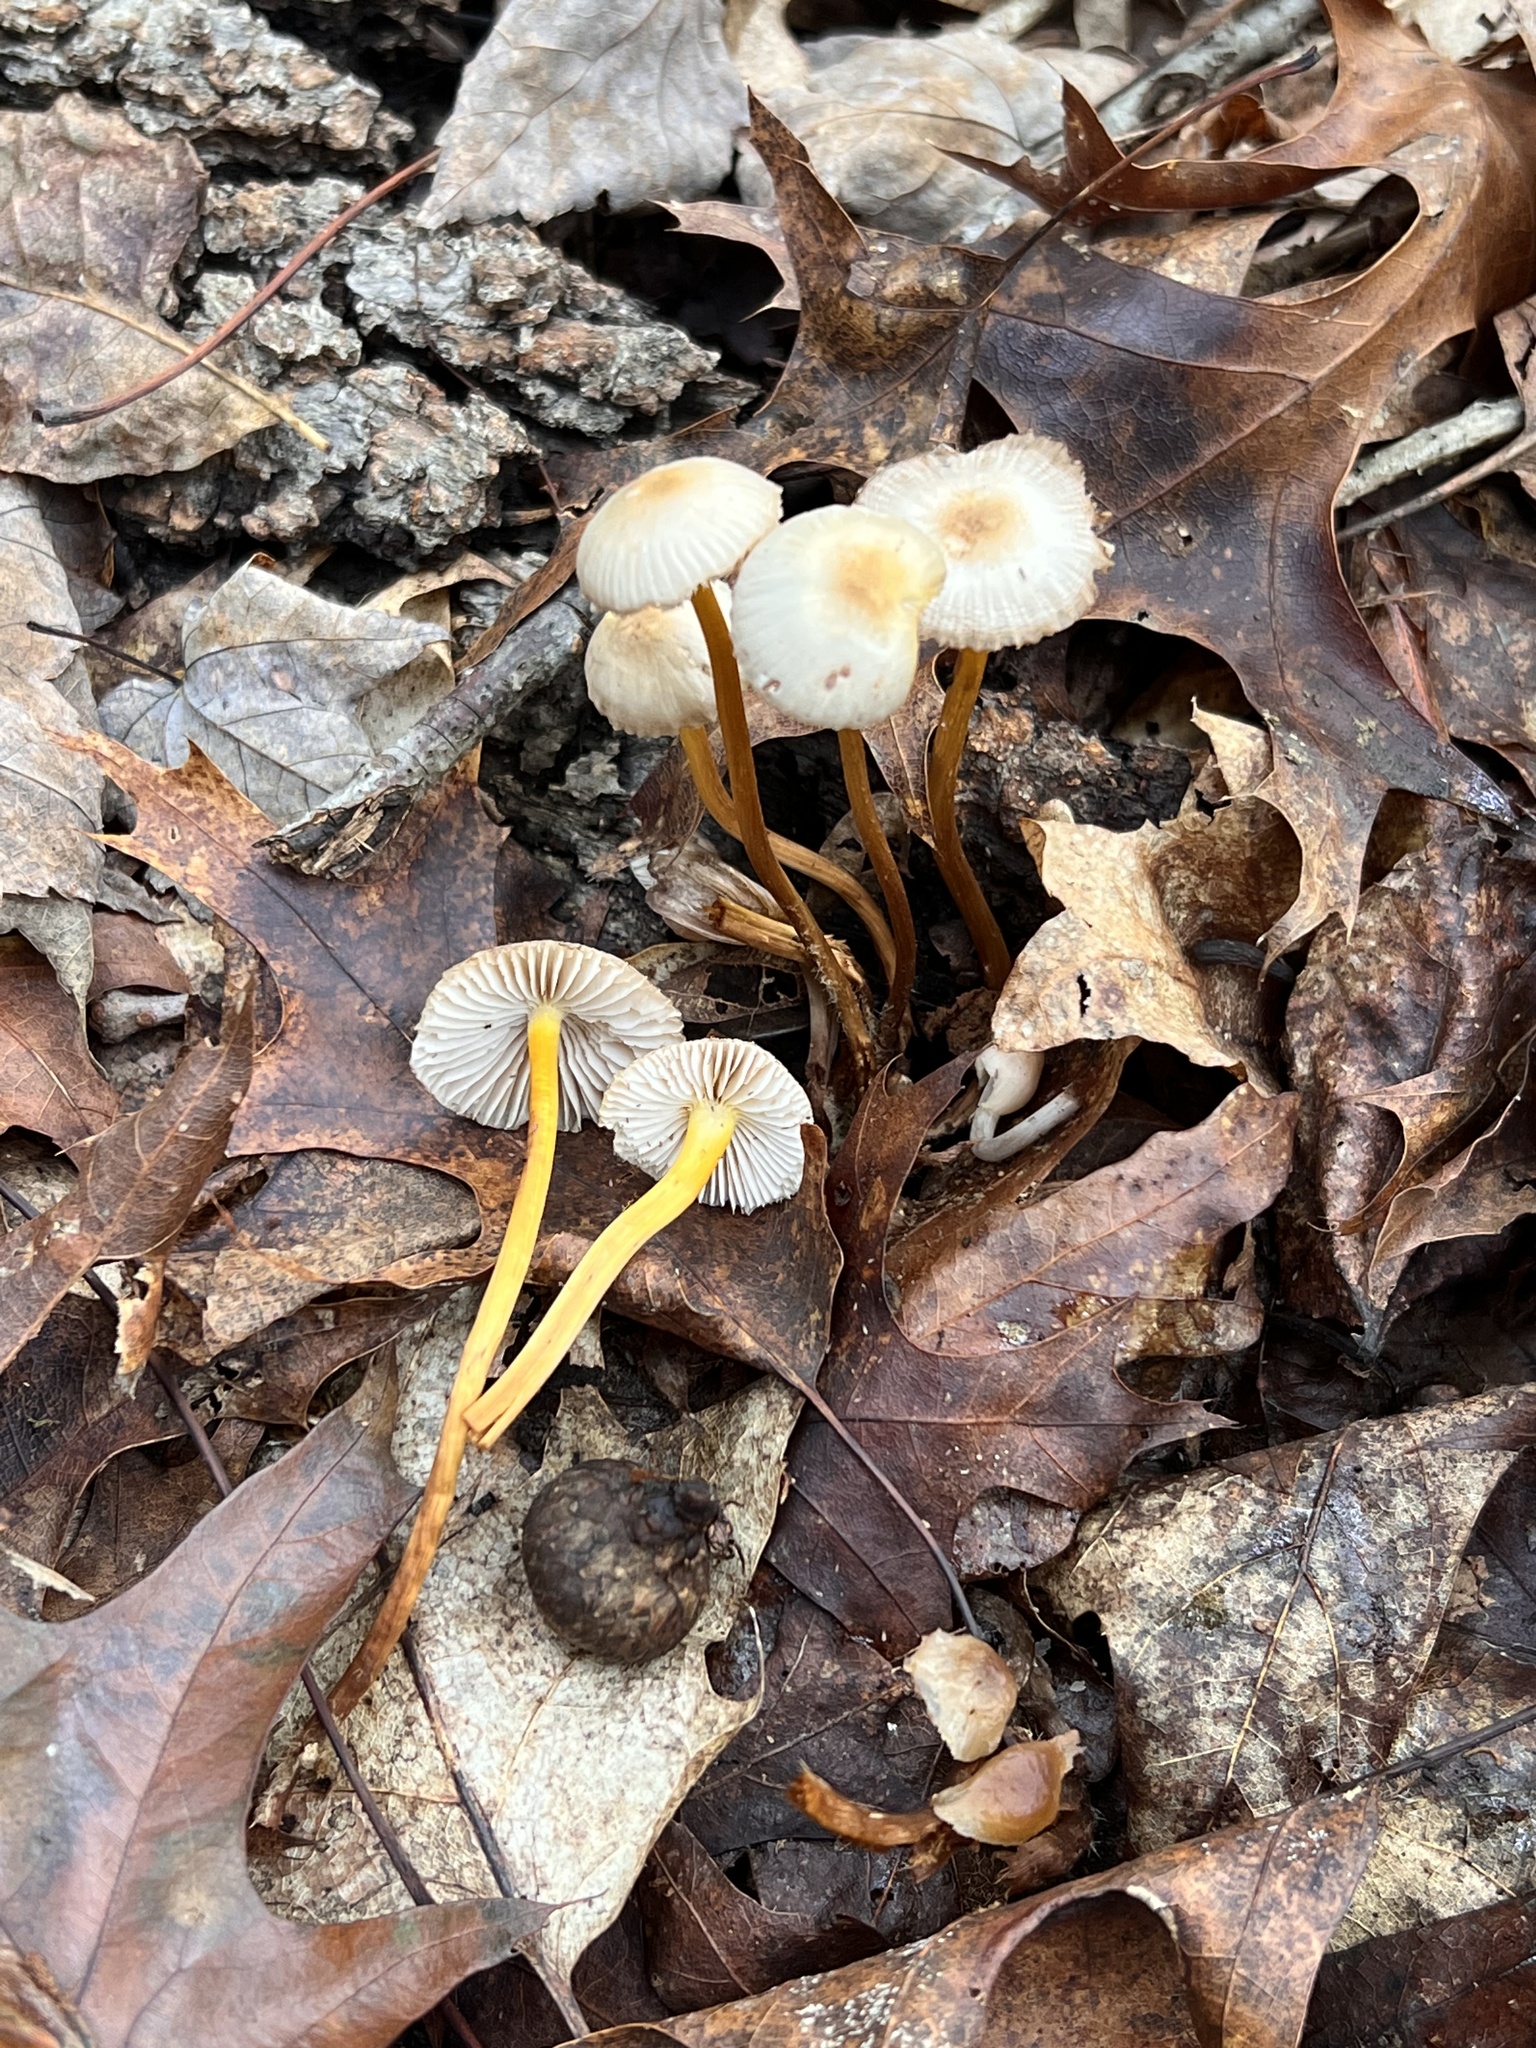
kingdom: Fungi
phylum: Basidiomycota
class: Agaricomycetes
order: Agaricales
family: Mycenaceae
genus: Mycena
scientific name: Mycena inclinata
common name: Clustered bonnet
